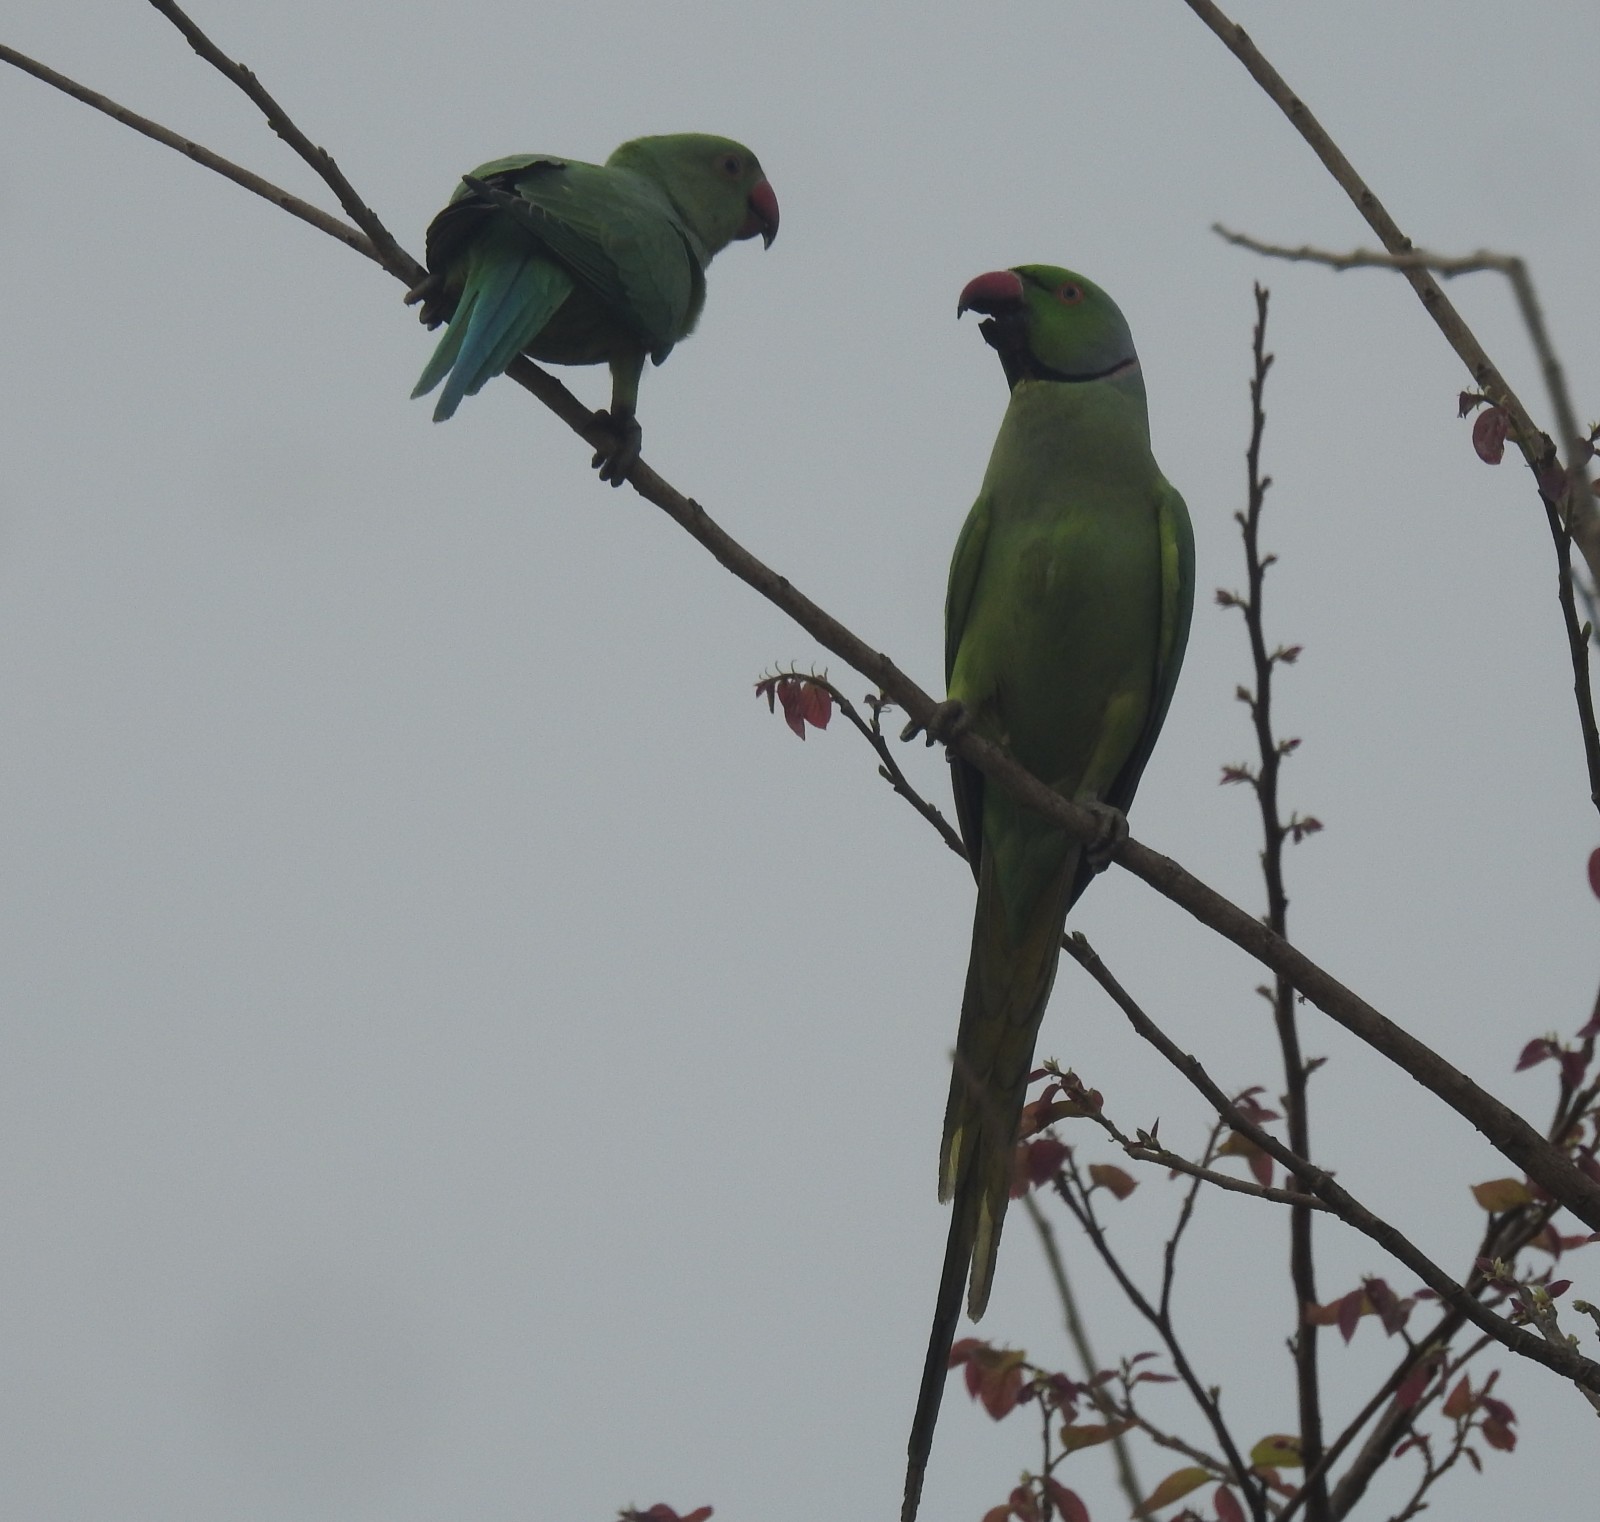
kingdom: Animalia
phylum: Chordata
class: Aves
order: Psittaciformes
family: Psittacidae
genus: Psittacula
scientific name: Psittacula krameri
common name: Rose-ringed parakeet
